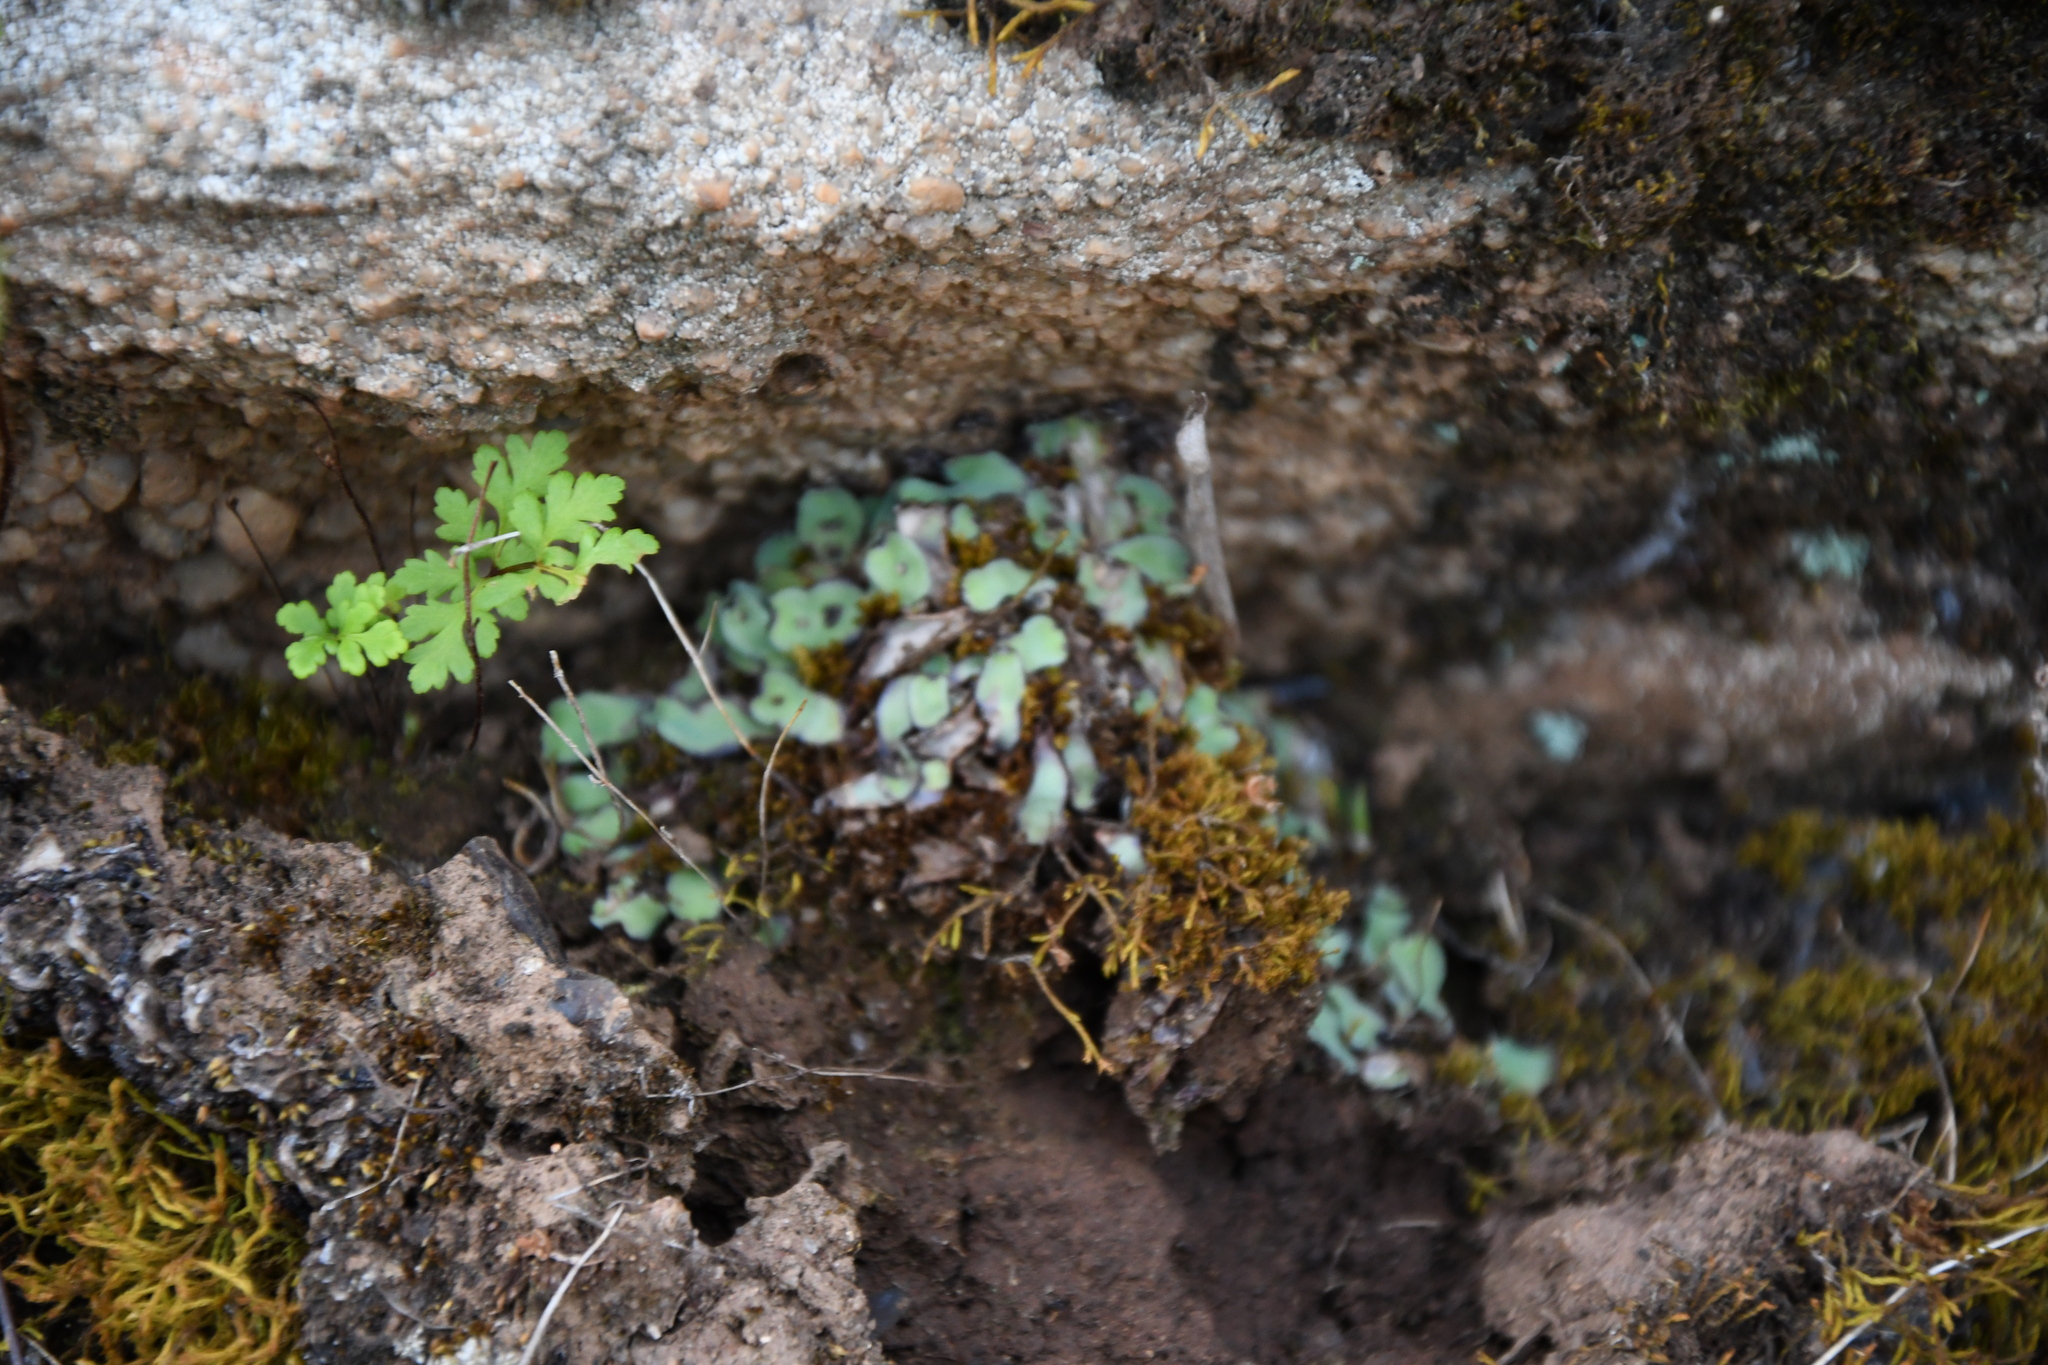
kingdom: Plantae
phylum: Marchantiophyta
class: Marchantiopsida
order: Marchantiales
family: Aytoniaceae
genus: Plagiochasma
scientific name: Plagiochasma rupestre
